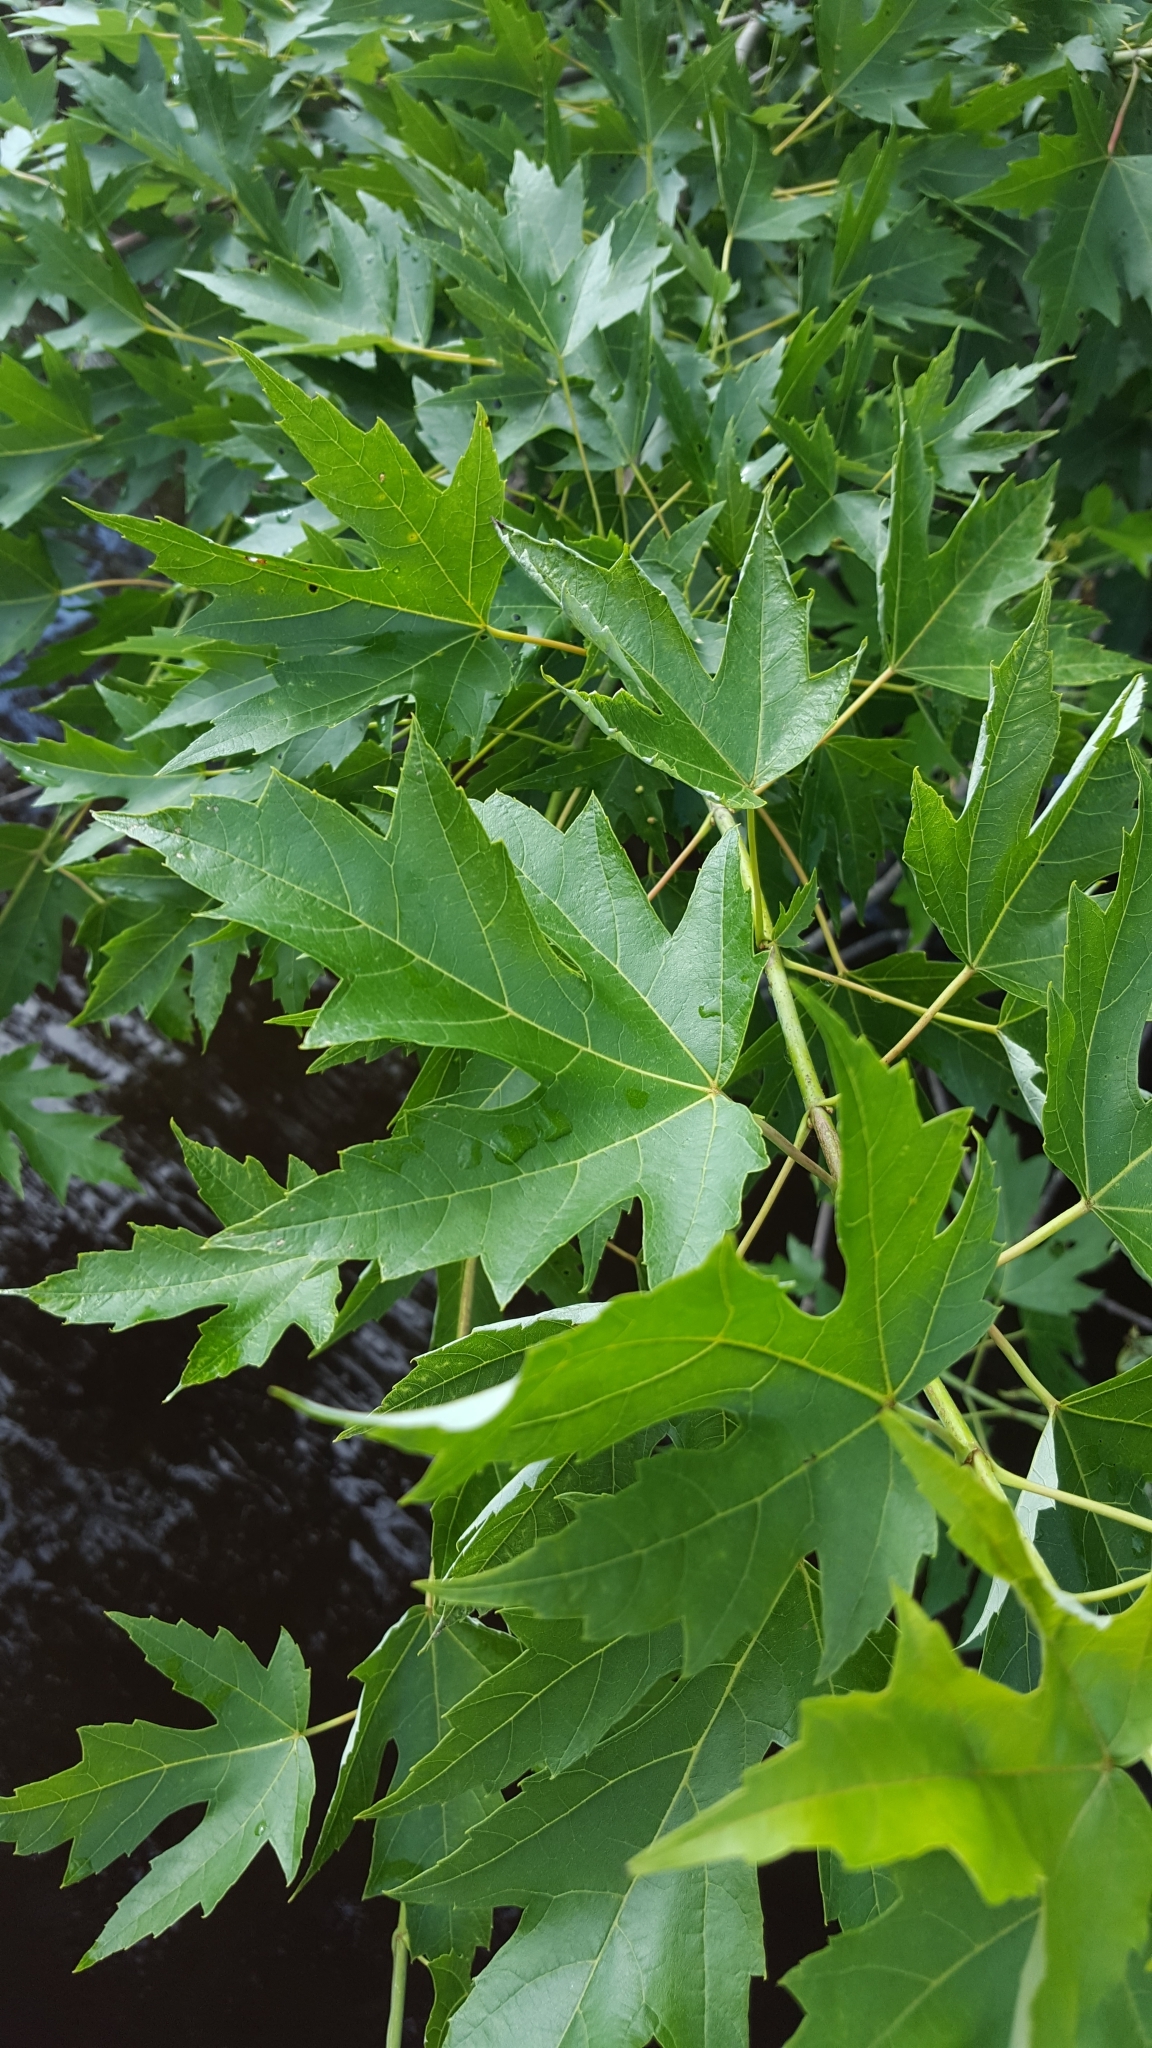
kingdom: Plantae
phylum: Tracheophyta
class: Magnoliopsida
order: Sapindales
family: Sapindaceae
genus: Acer
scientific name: Acer saccharinum
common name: Silver maple
